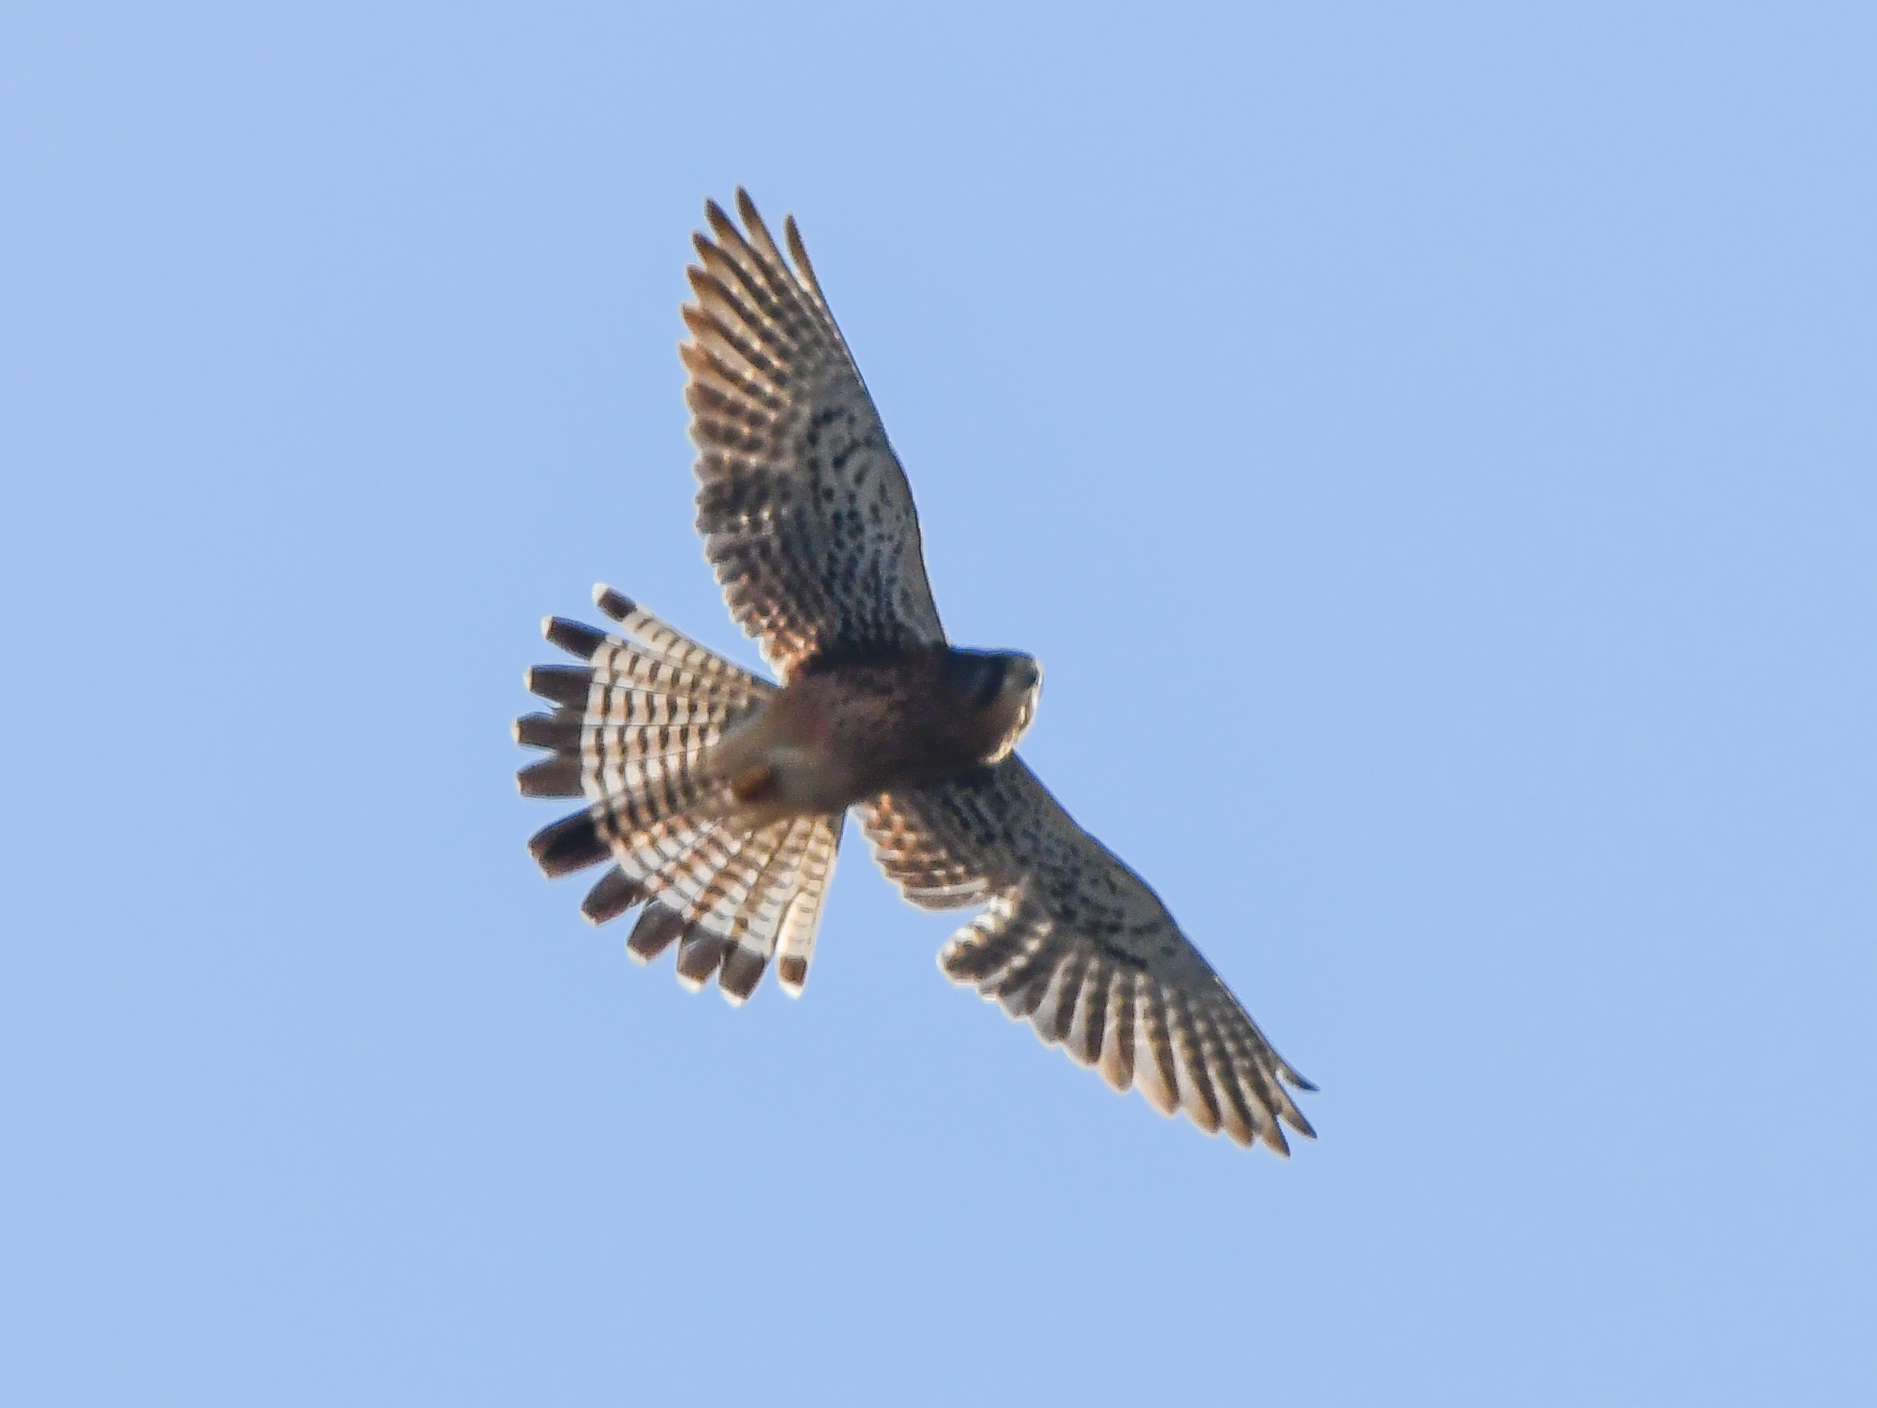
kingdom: Animalia
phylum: Chordata
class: Aves
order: Falconiformes
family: Falconidae
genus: Falco
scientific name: Falco tinnunculus
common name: Common kestrel
